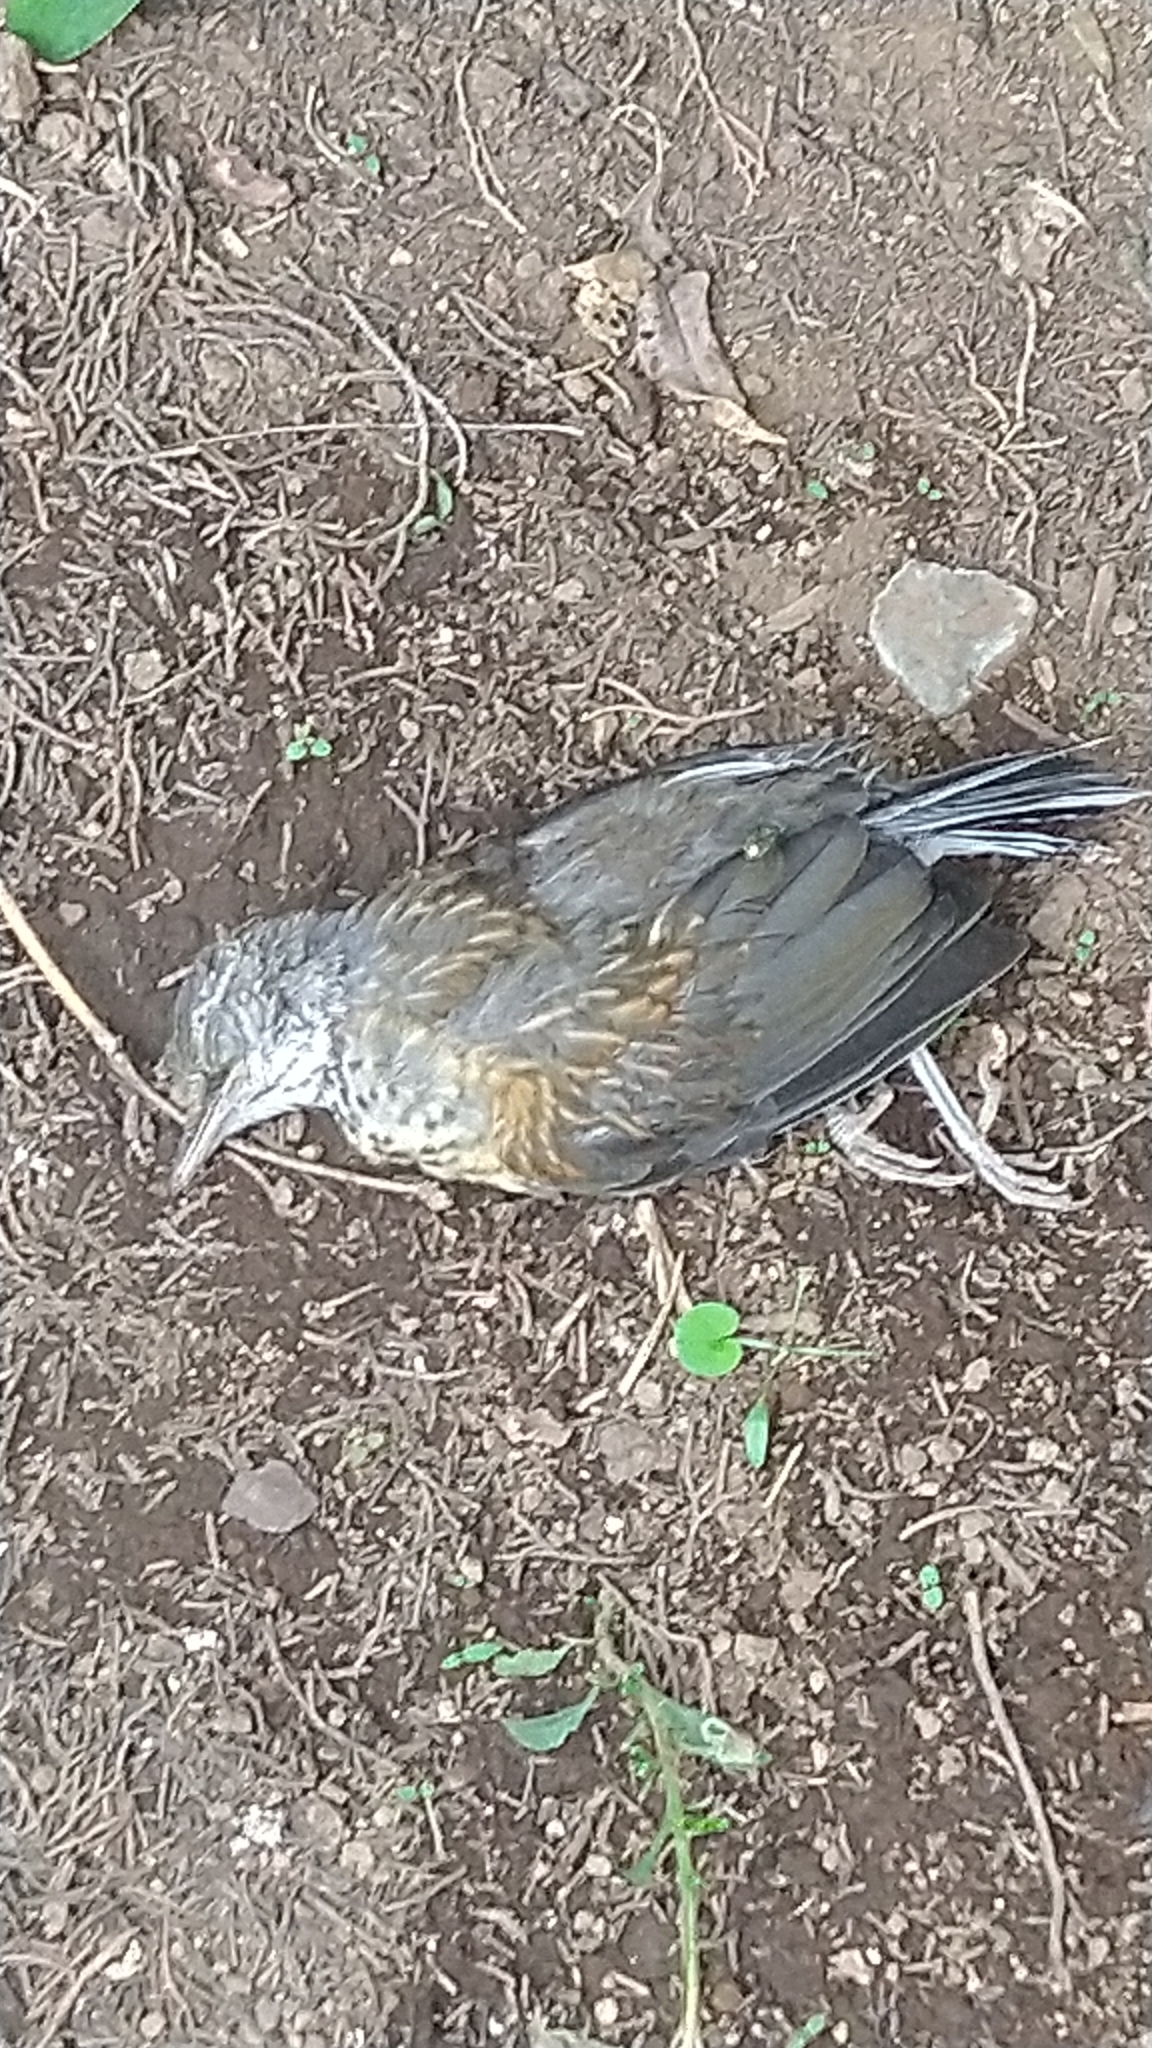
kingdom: Animalia
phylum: Chordata
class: Aves
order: Passeriformes
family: Turdidae
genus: Turdus
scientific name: Turdus rufopalliatus
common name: Rufous-backed robin
